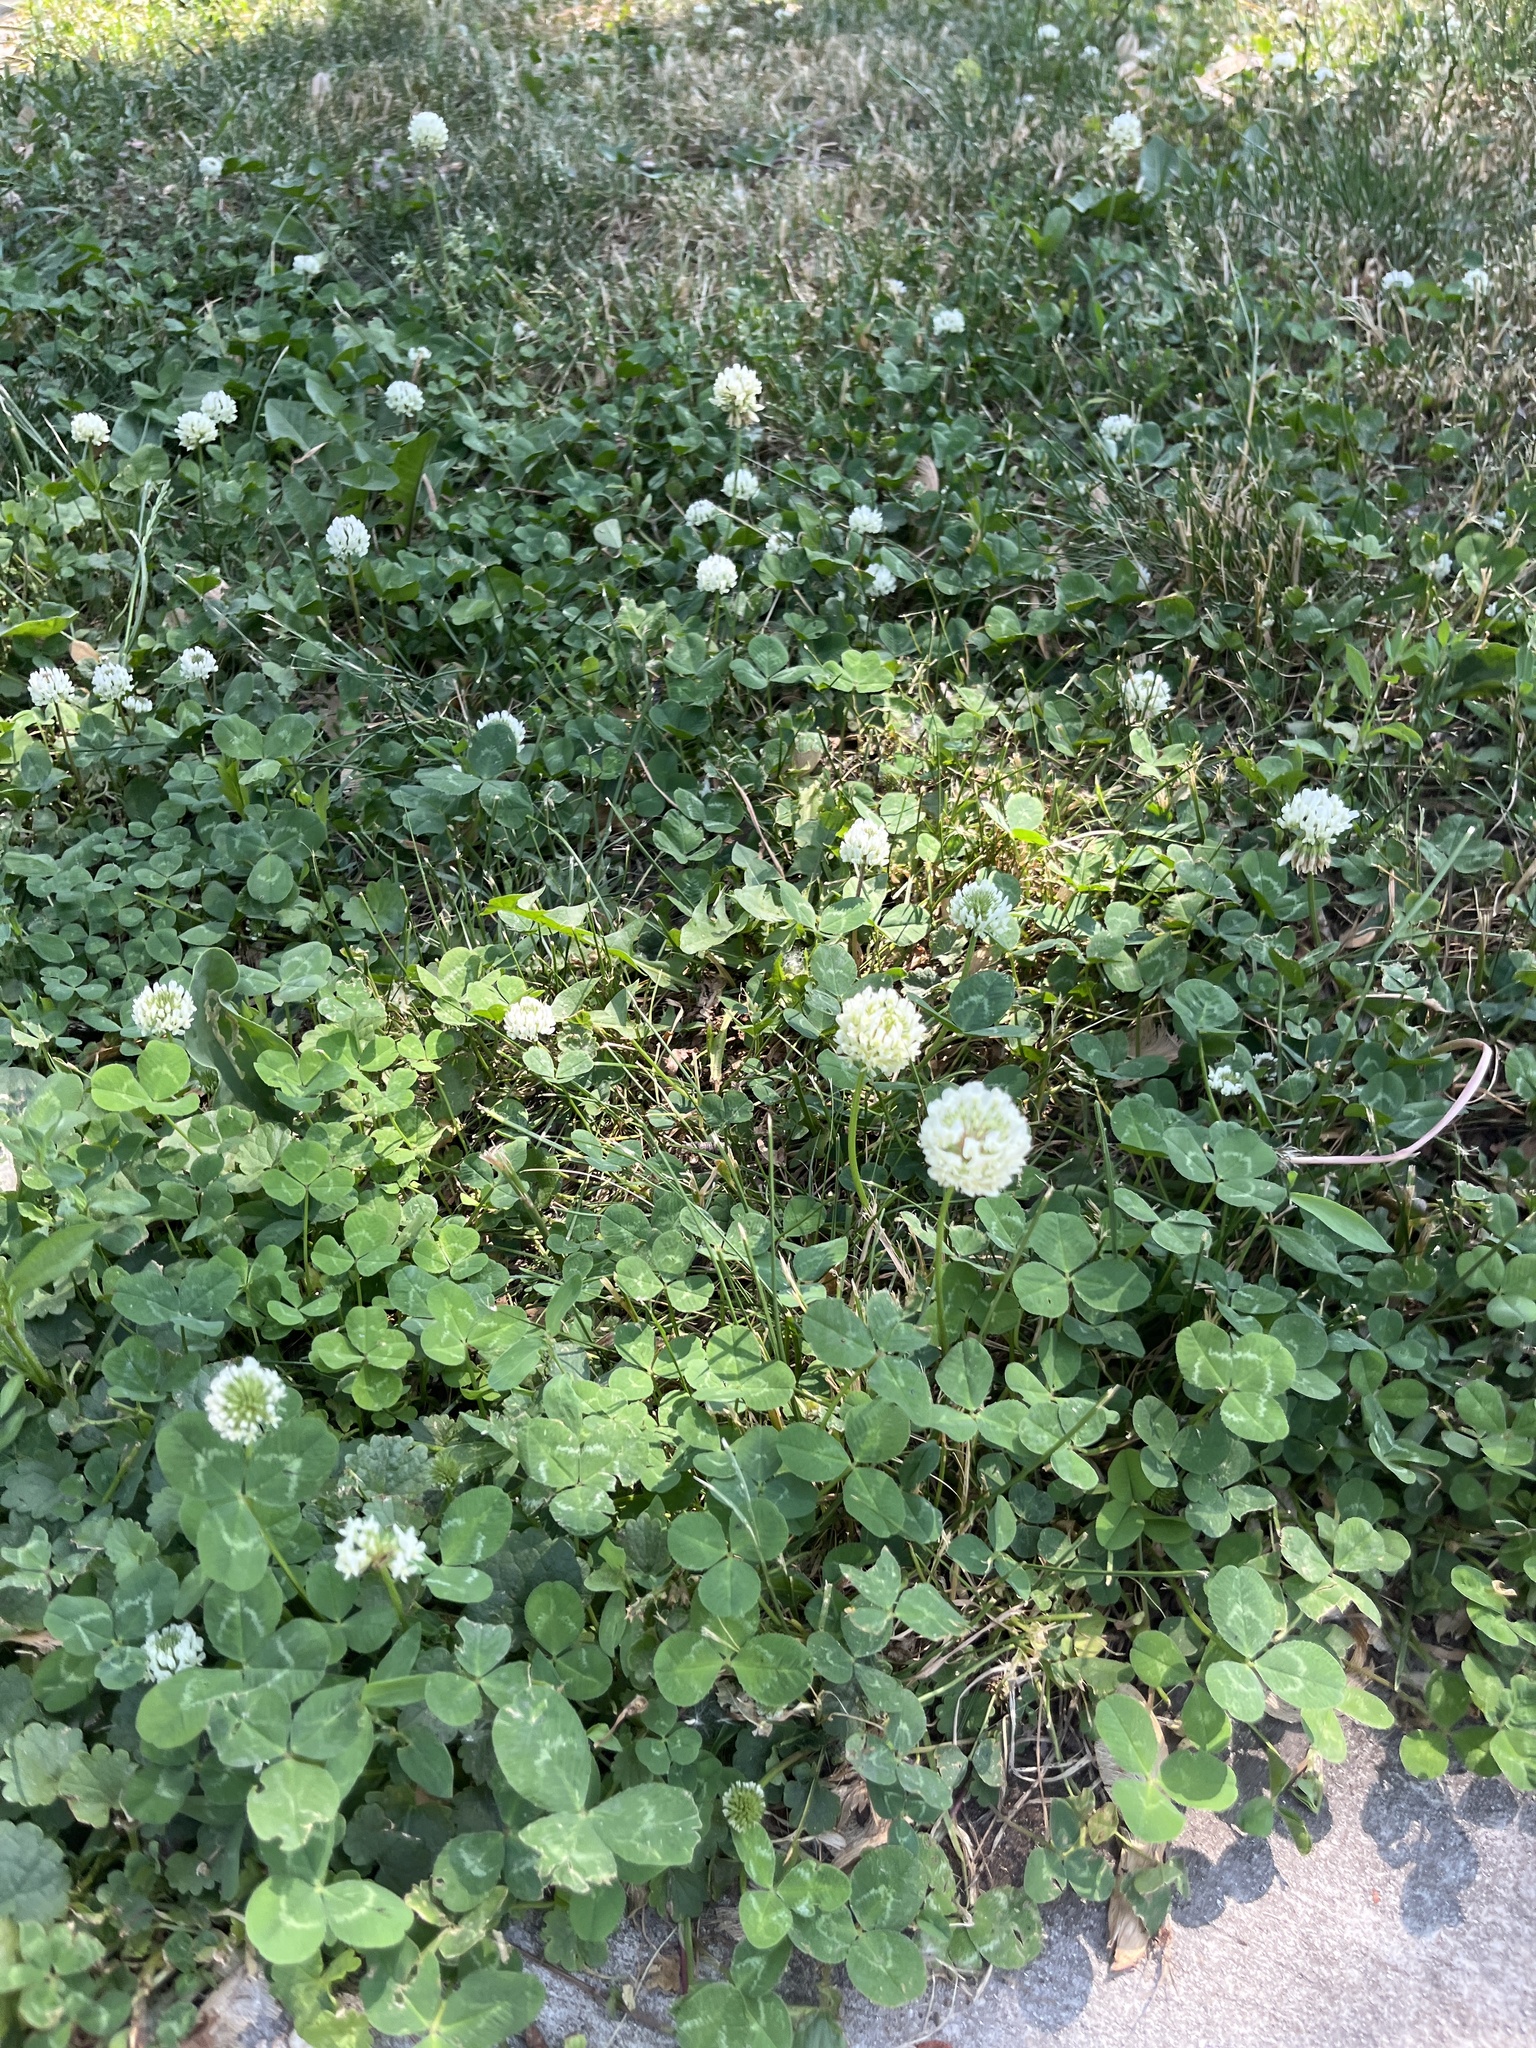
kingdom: Plantae
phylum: Tracheophyta
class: Magnoliopsida
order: Fabales
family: Fabaceae
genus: Trifolium
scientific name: Trifolium repens
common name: White clover
